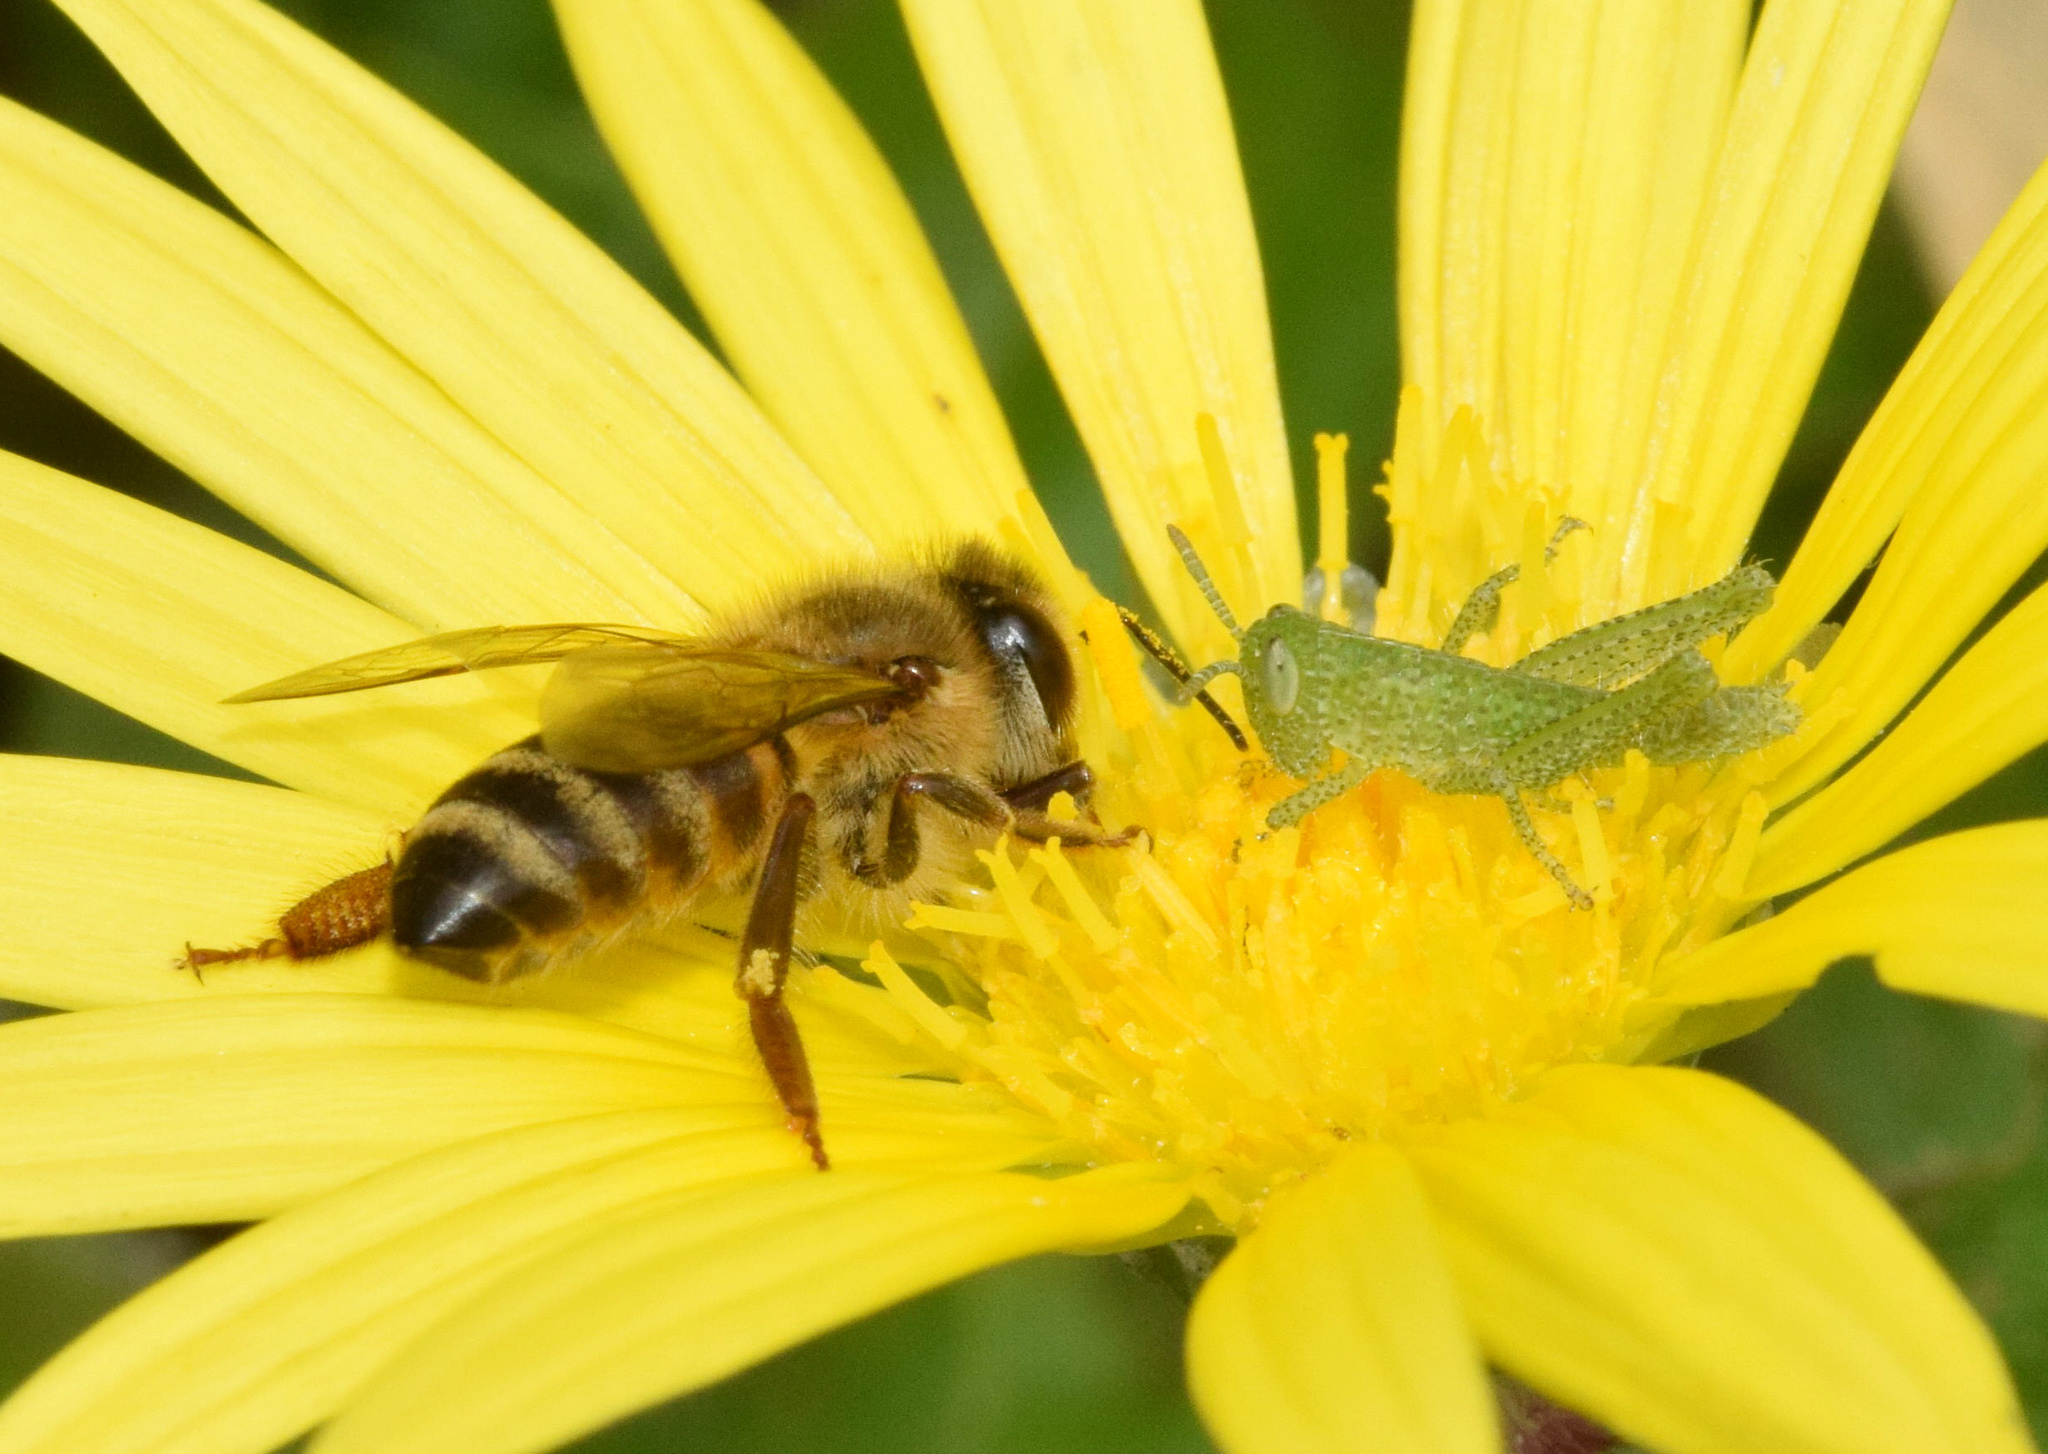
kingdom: Animalia
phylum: Arthropoda
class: Insecta
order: Hymenoptera
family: Apidae
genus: Apis
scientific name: Apis mellifera
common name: Honey bee
